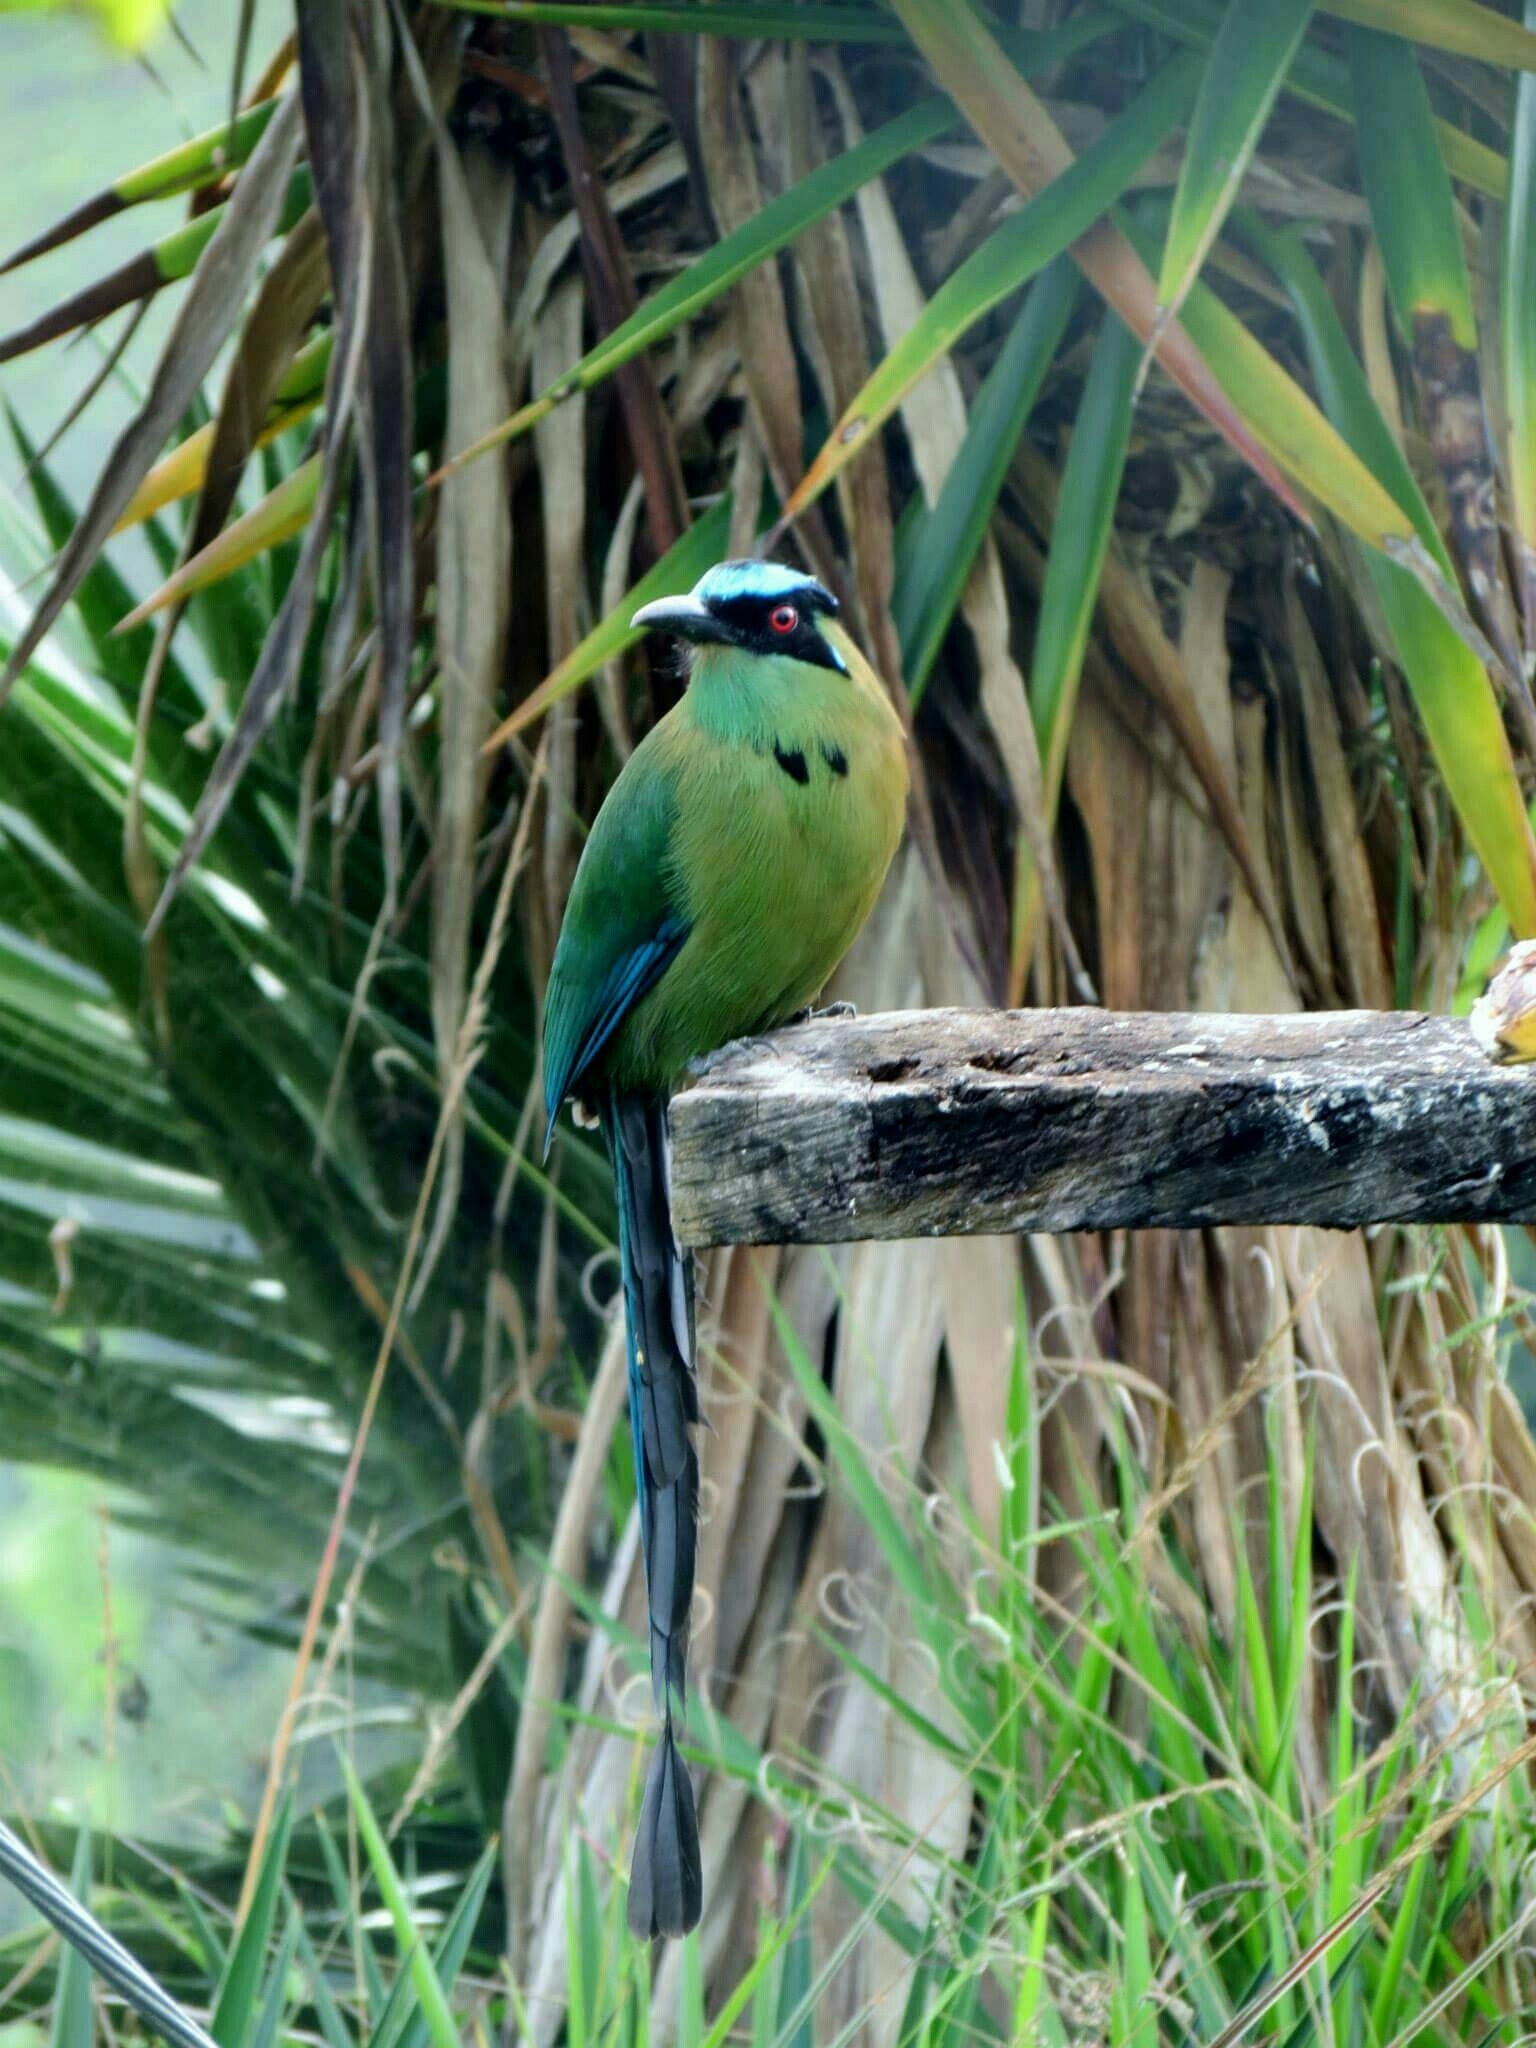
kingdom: Animalia
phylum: Chordata
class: Aves
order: Coraciiformes
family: Momotidae
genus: Momotus
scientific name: Momotus aequatorialis
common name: Andean motmot
